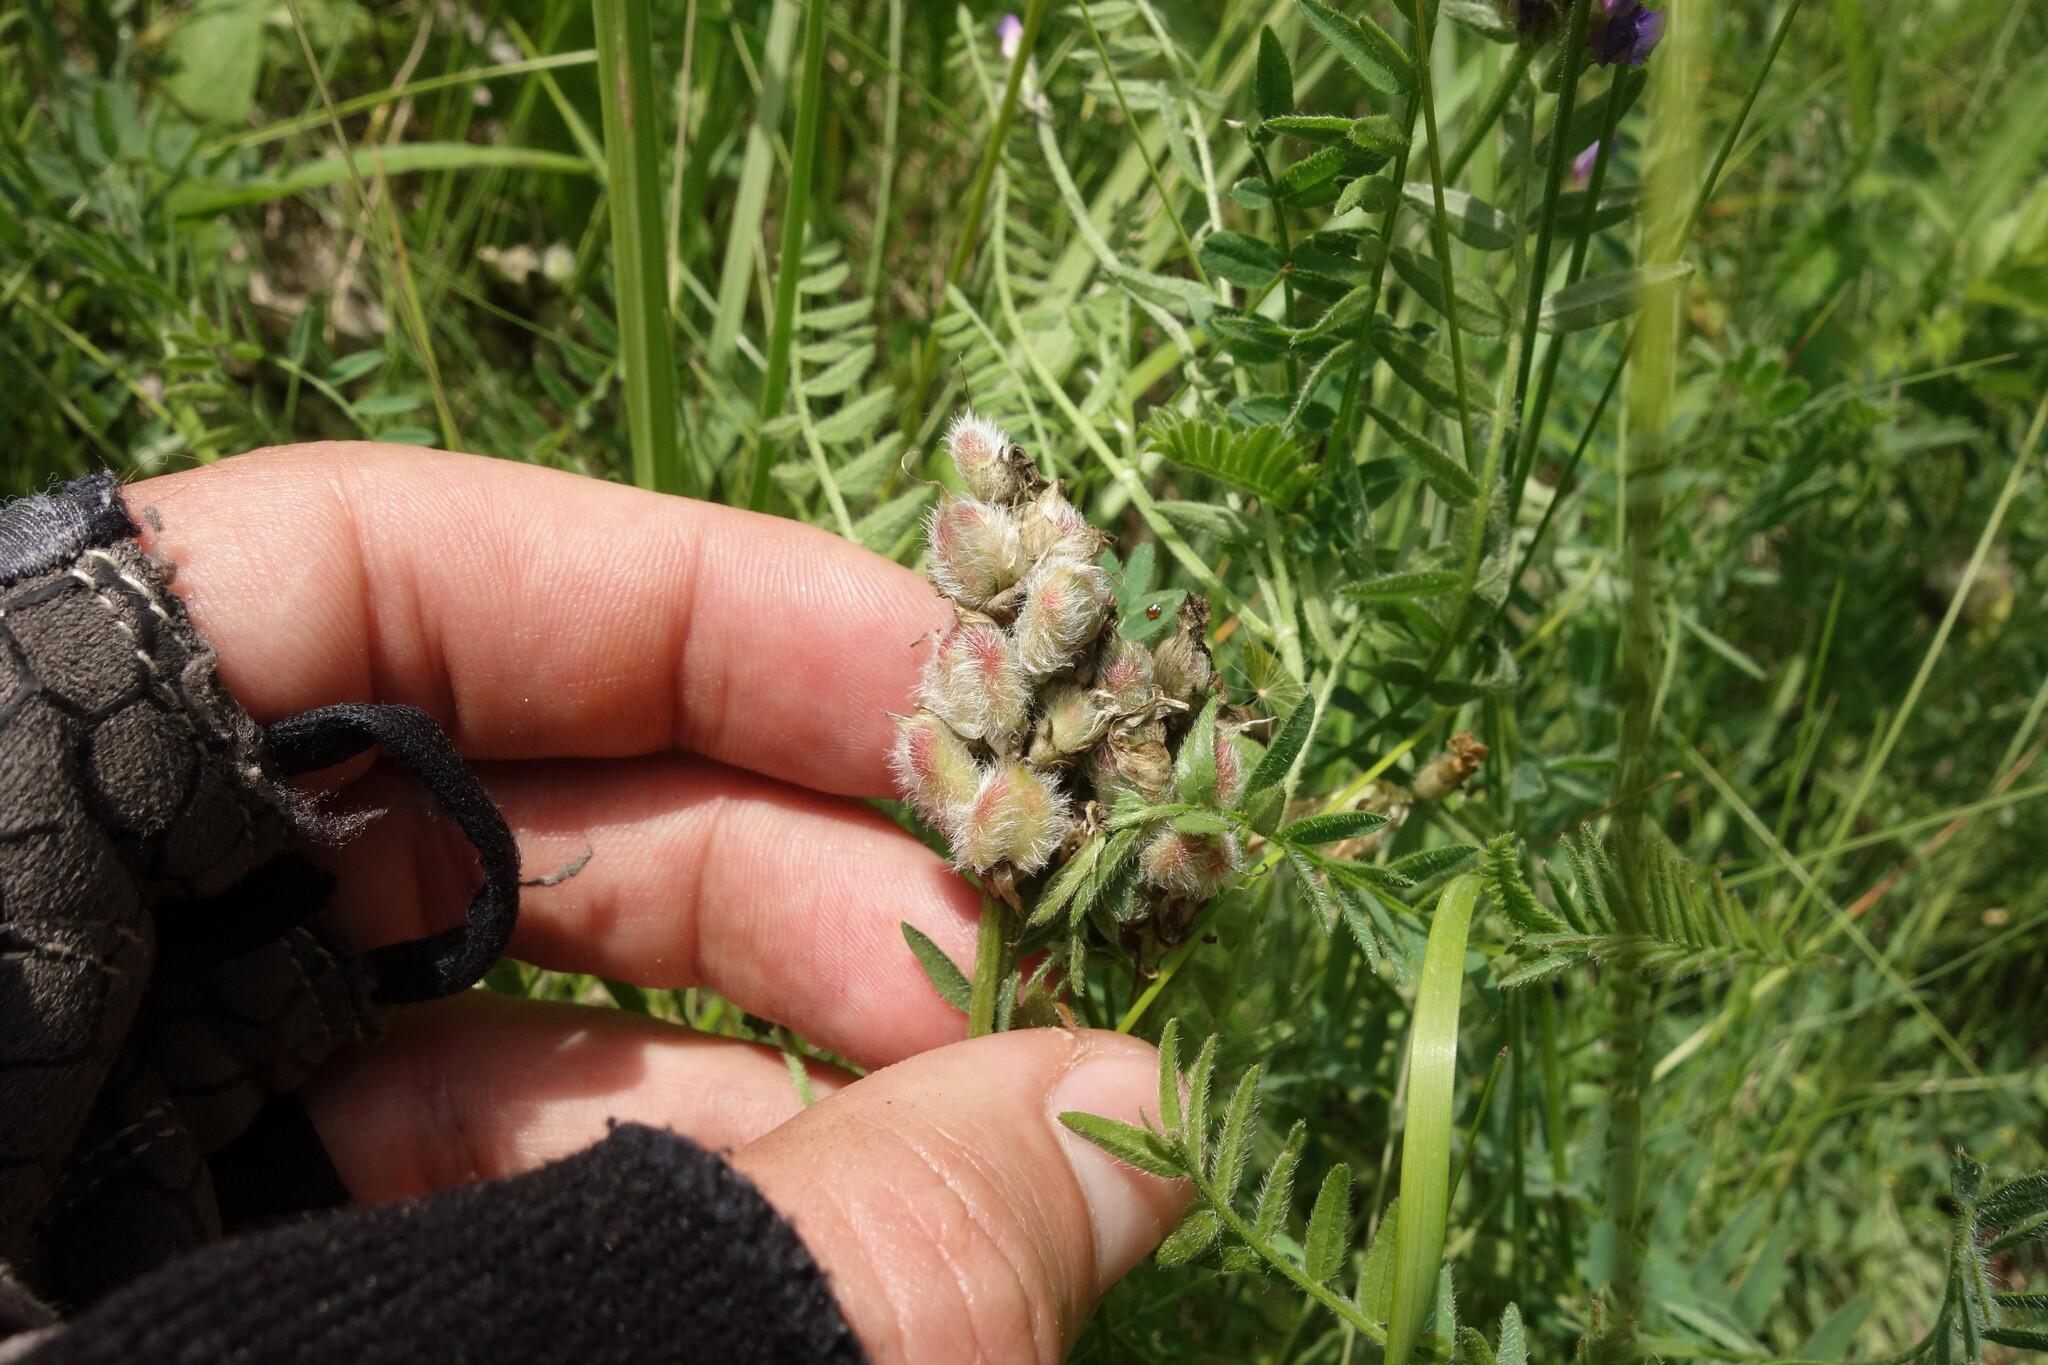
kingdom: Plantae
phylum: Tracheophyta
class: Magnoliopsida
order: Fabales
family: Fabaceae
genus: Astragalus
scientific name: Astragalus danicus
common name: Purple milk-vetch
